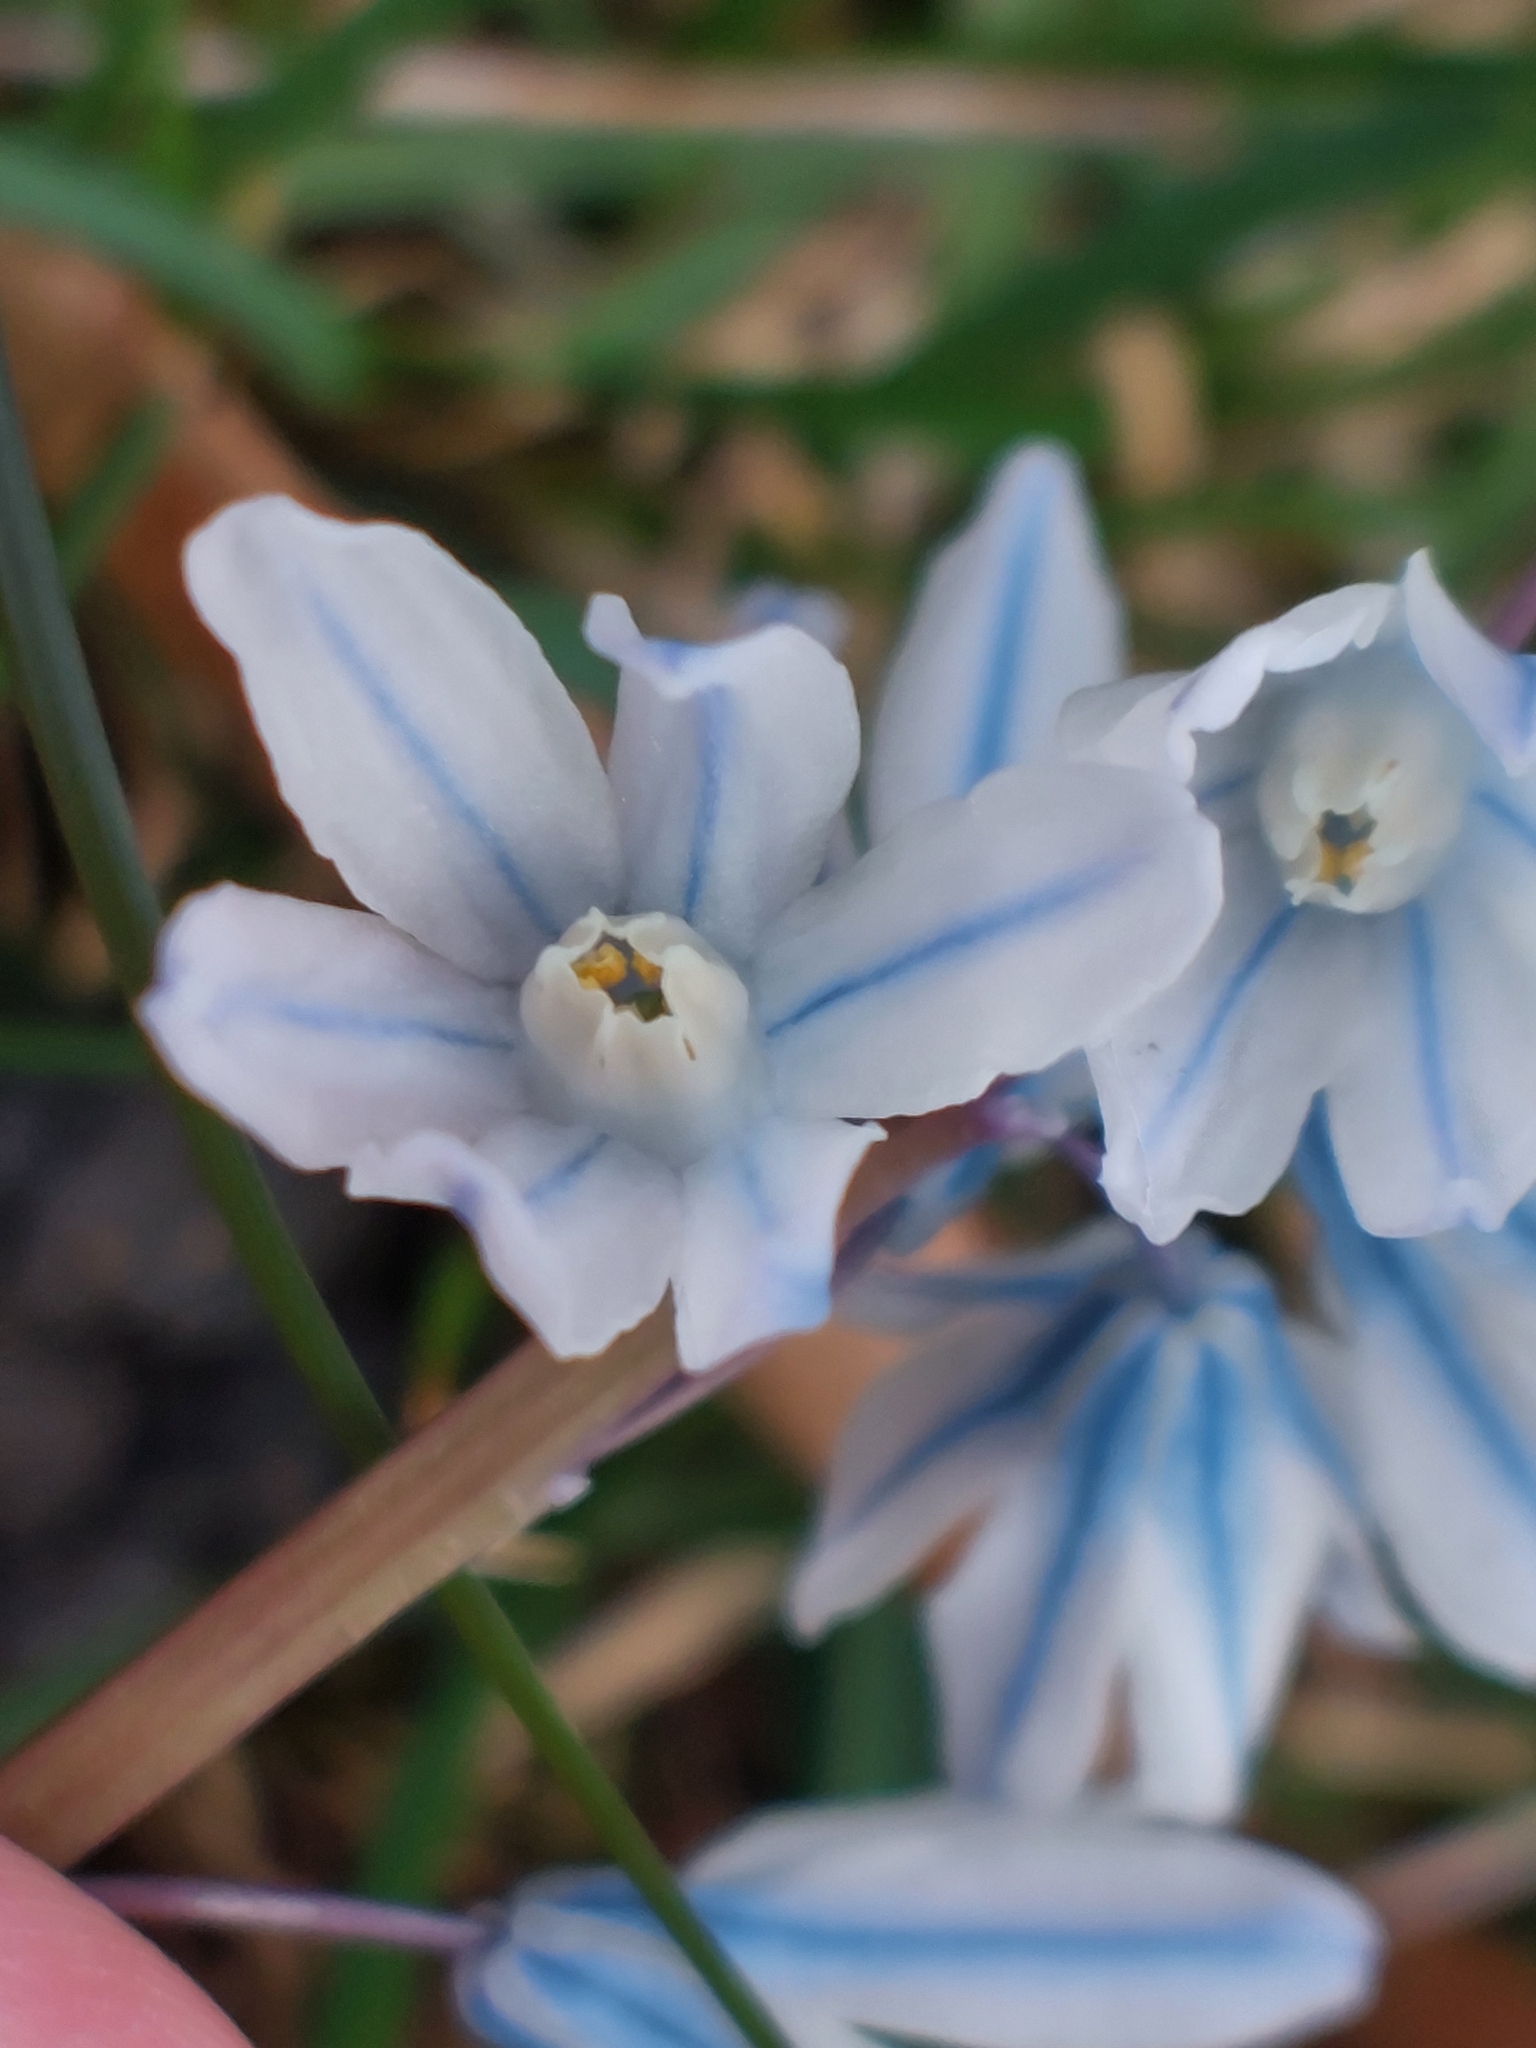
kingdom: Plantae
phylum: Tracheophyta
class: Liliopsida
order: Asparagales
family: Asparagaceae
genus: Puschkinia
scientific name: Puschkinia scilloides
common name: Striped squill
